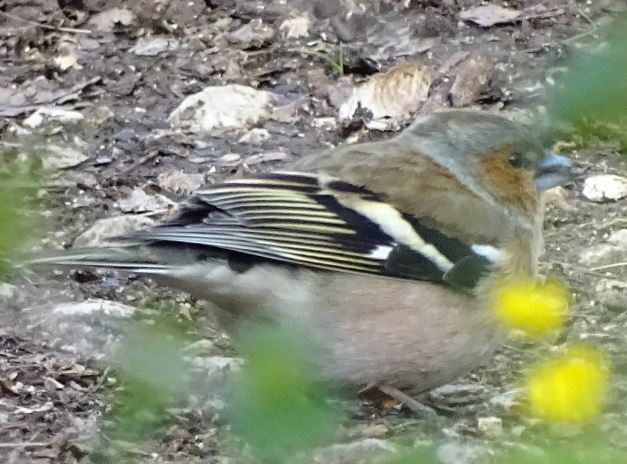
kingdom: Animalia
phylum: Chordata
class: Aves
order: Passeriformes
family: Fringillidae
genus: Fringilla
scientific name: Fringilla coelebs
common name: Common chaffinch
